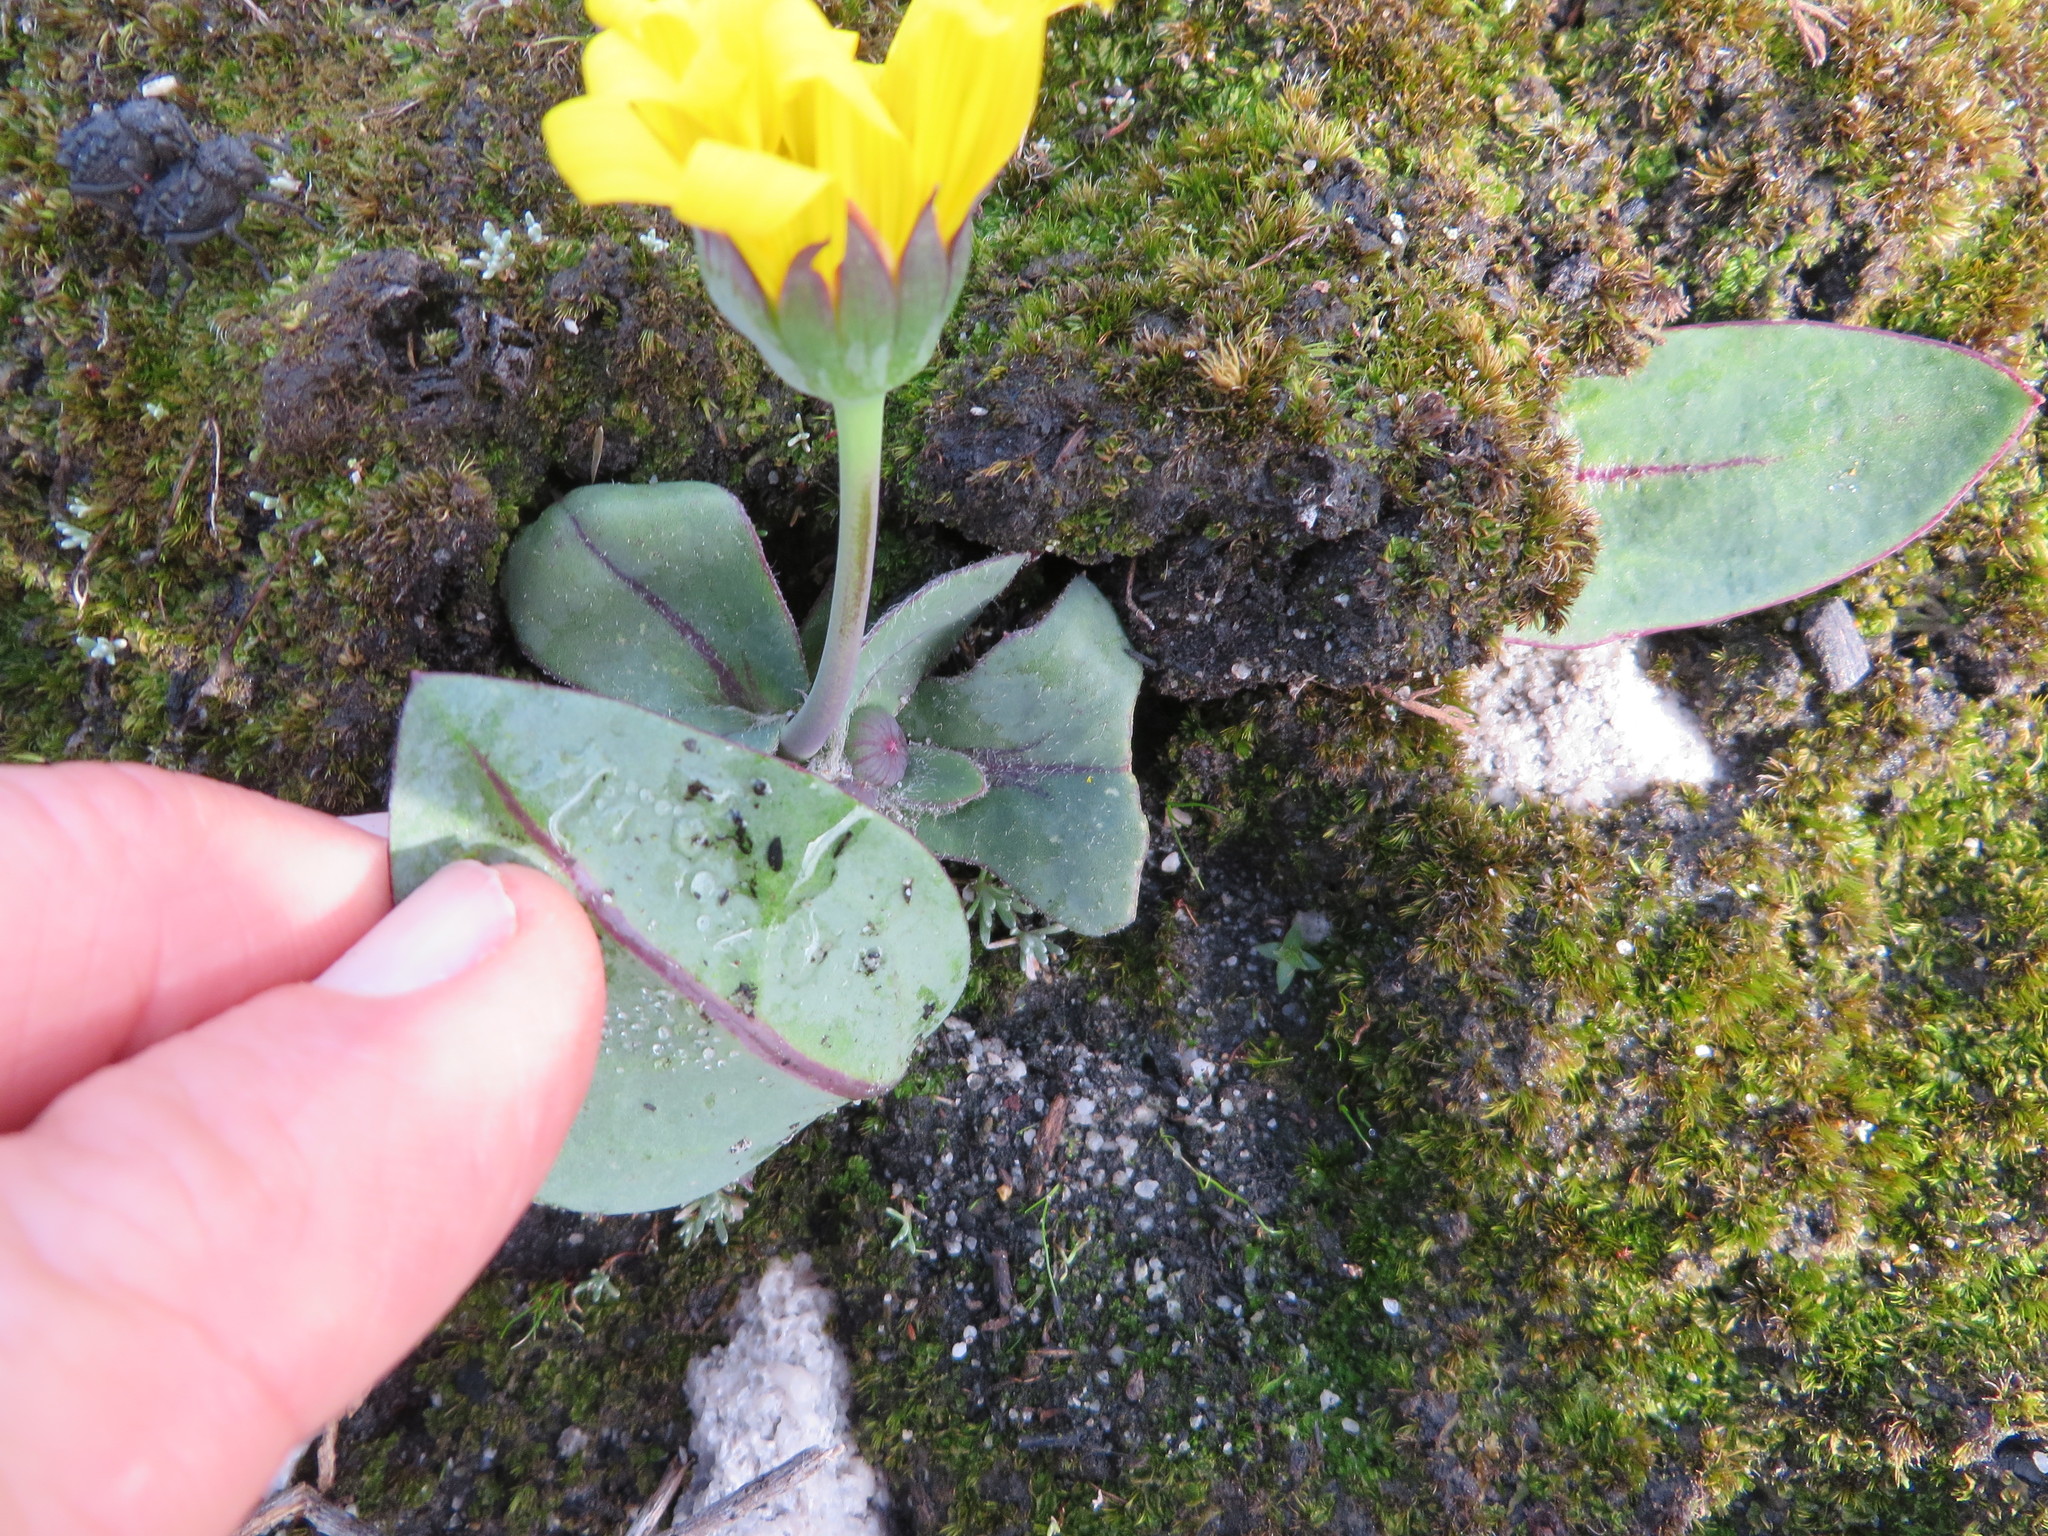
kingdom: Plantae
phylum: Tracheophyta
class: Magnoliopsida
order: Asterales
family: Asteraceae
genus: Othonna
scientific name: Othonna bulbosa
